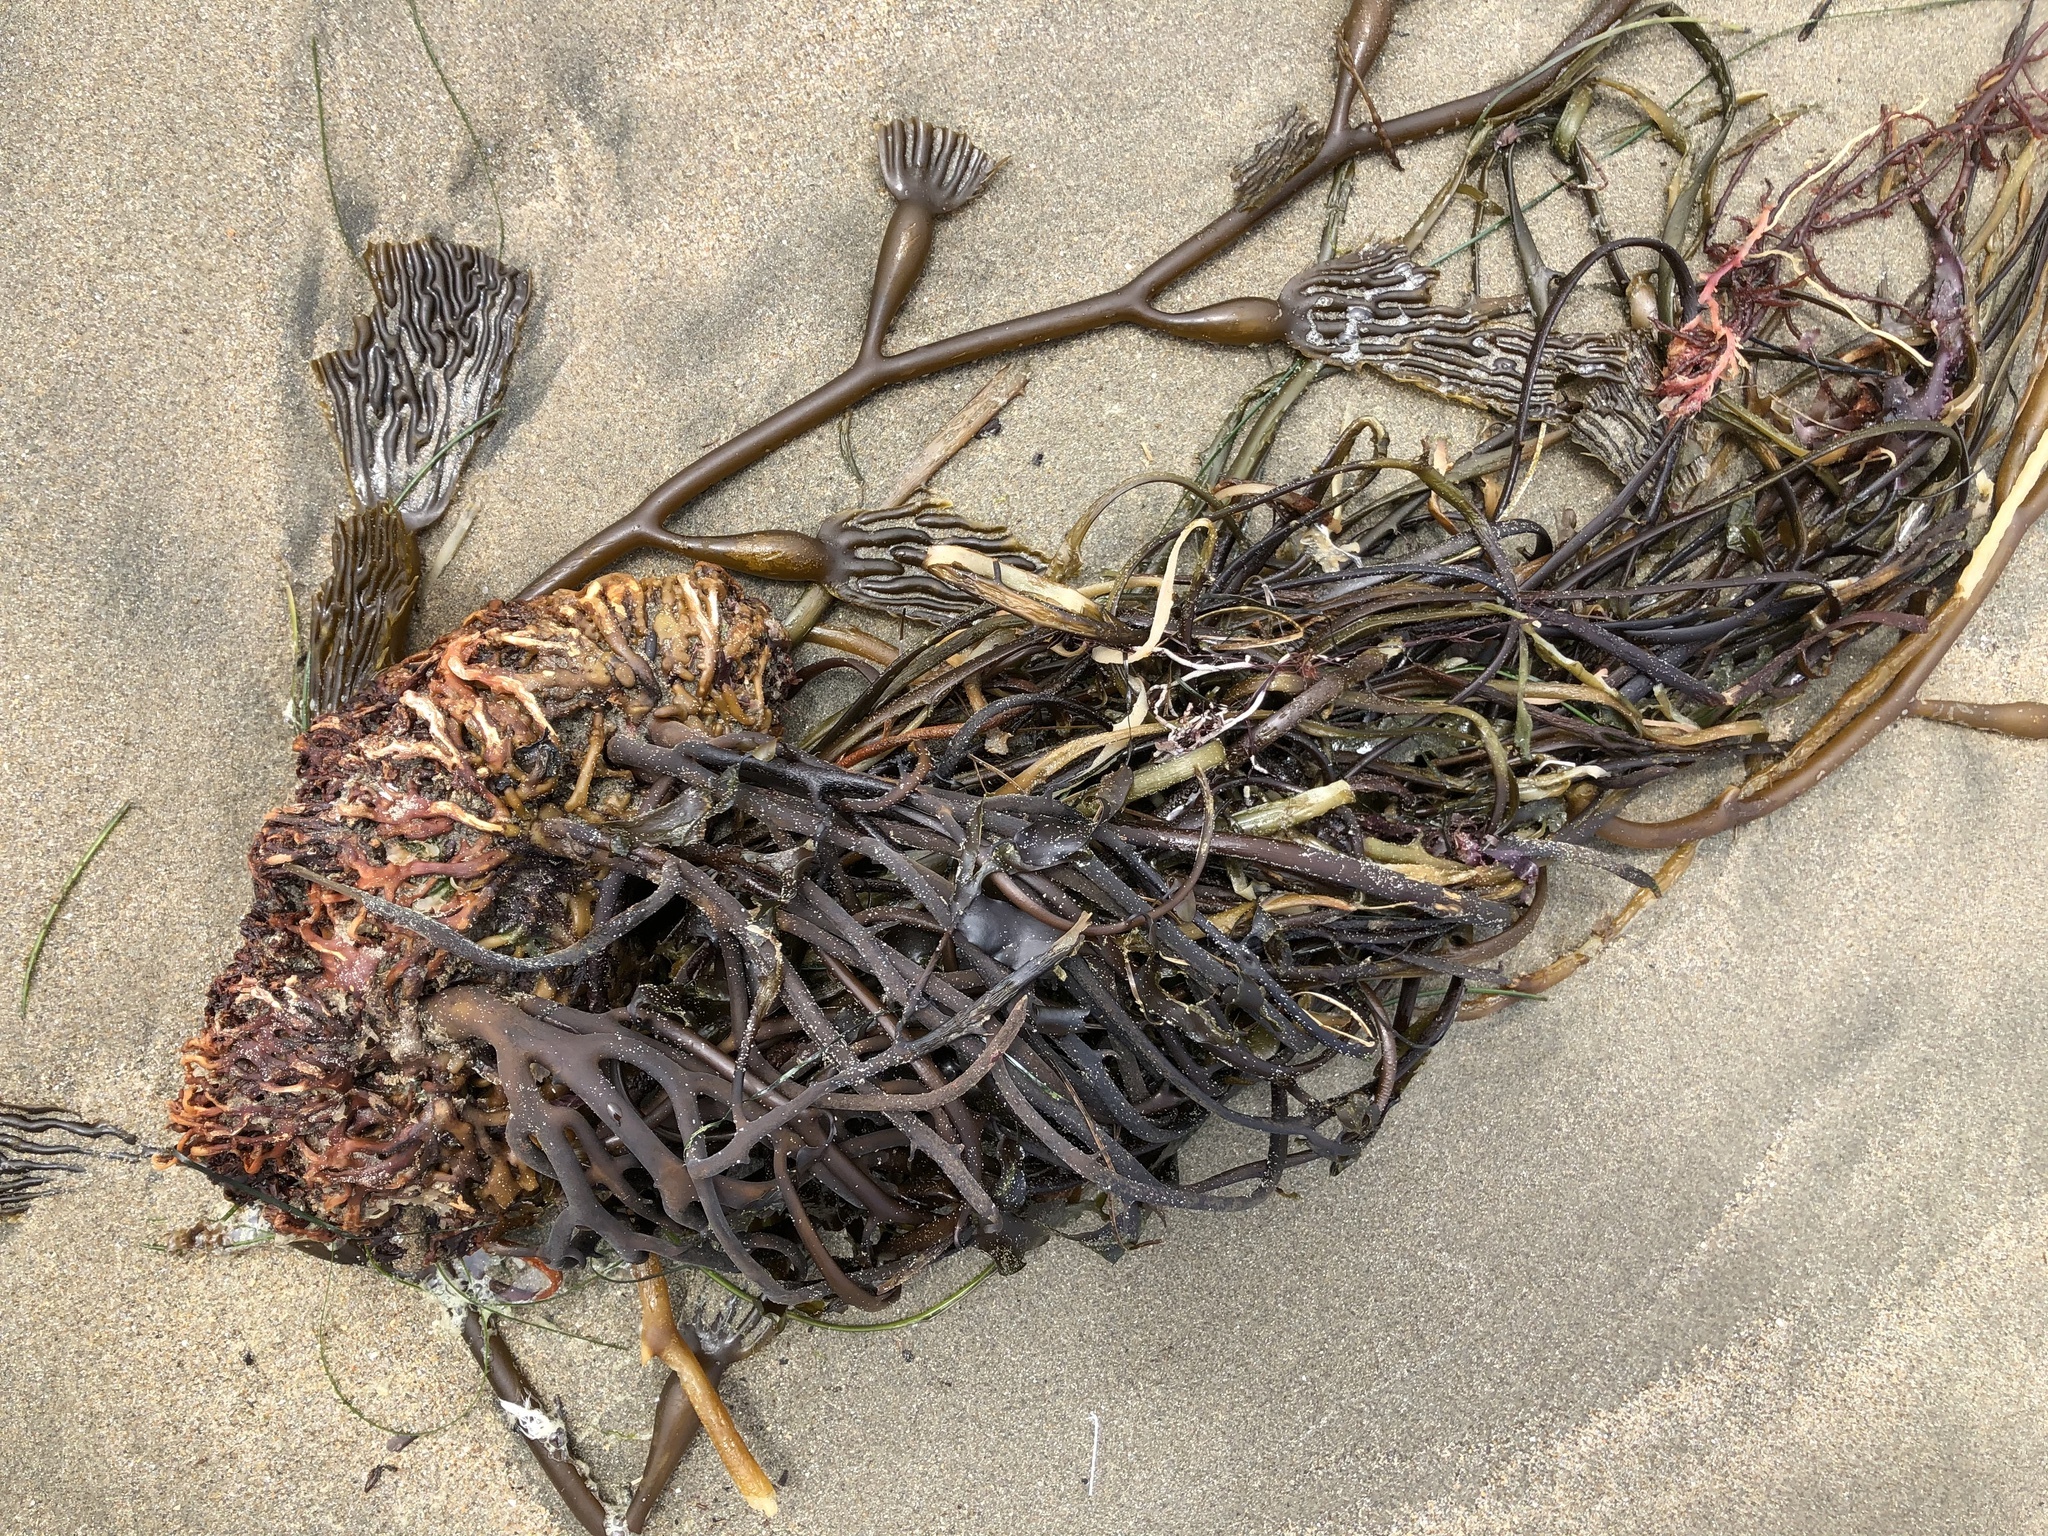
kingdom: Chromista
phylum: Ochrophyta
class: Phaeophyceae
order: Laminariales
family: Laminariaceae
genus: Macrocystis
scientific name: Macrocystis pyrifera
